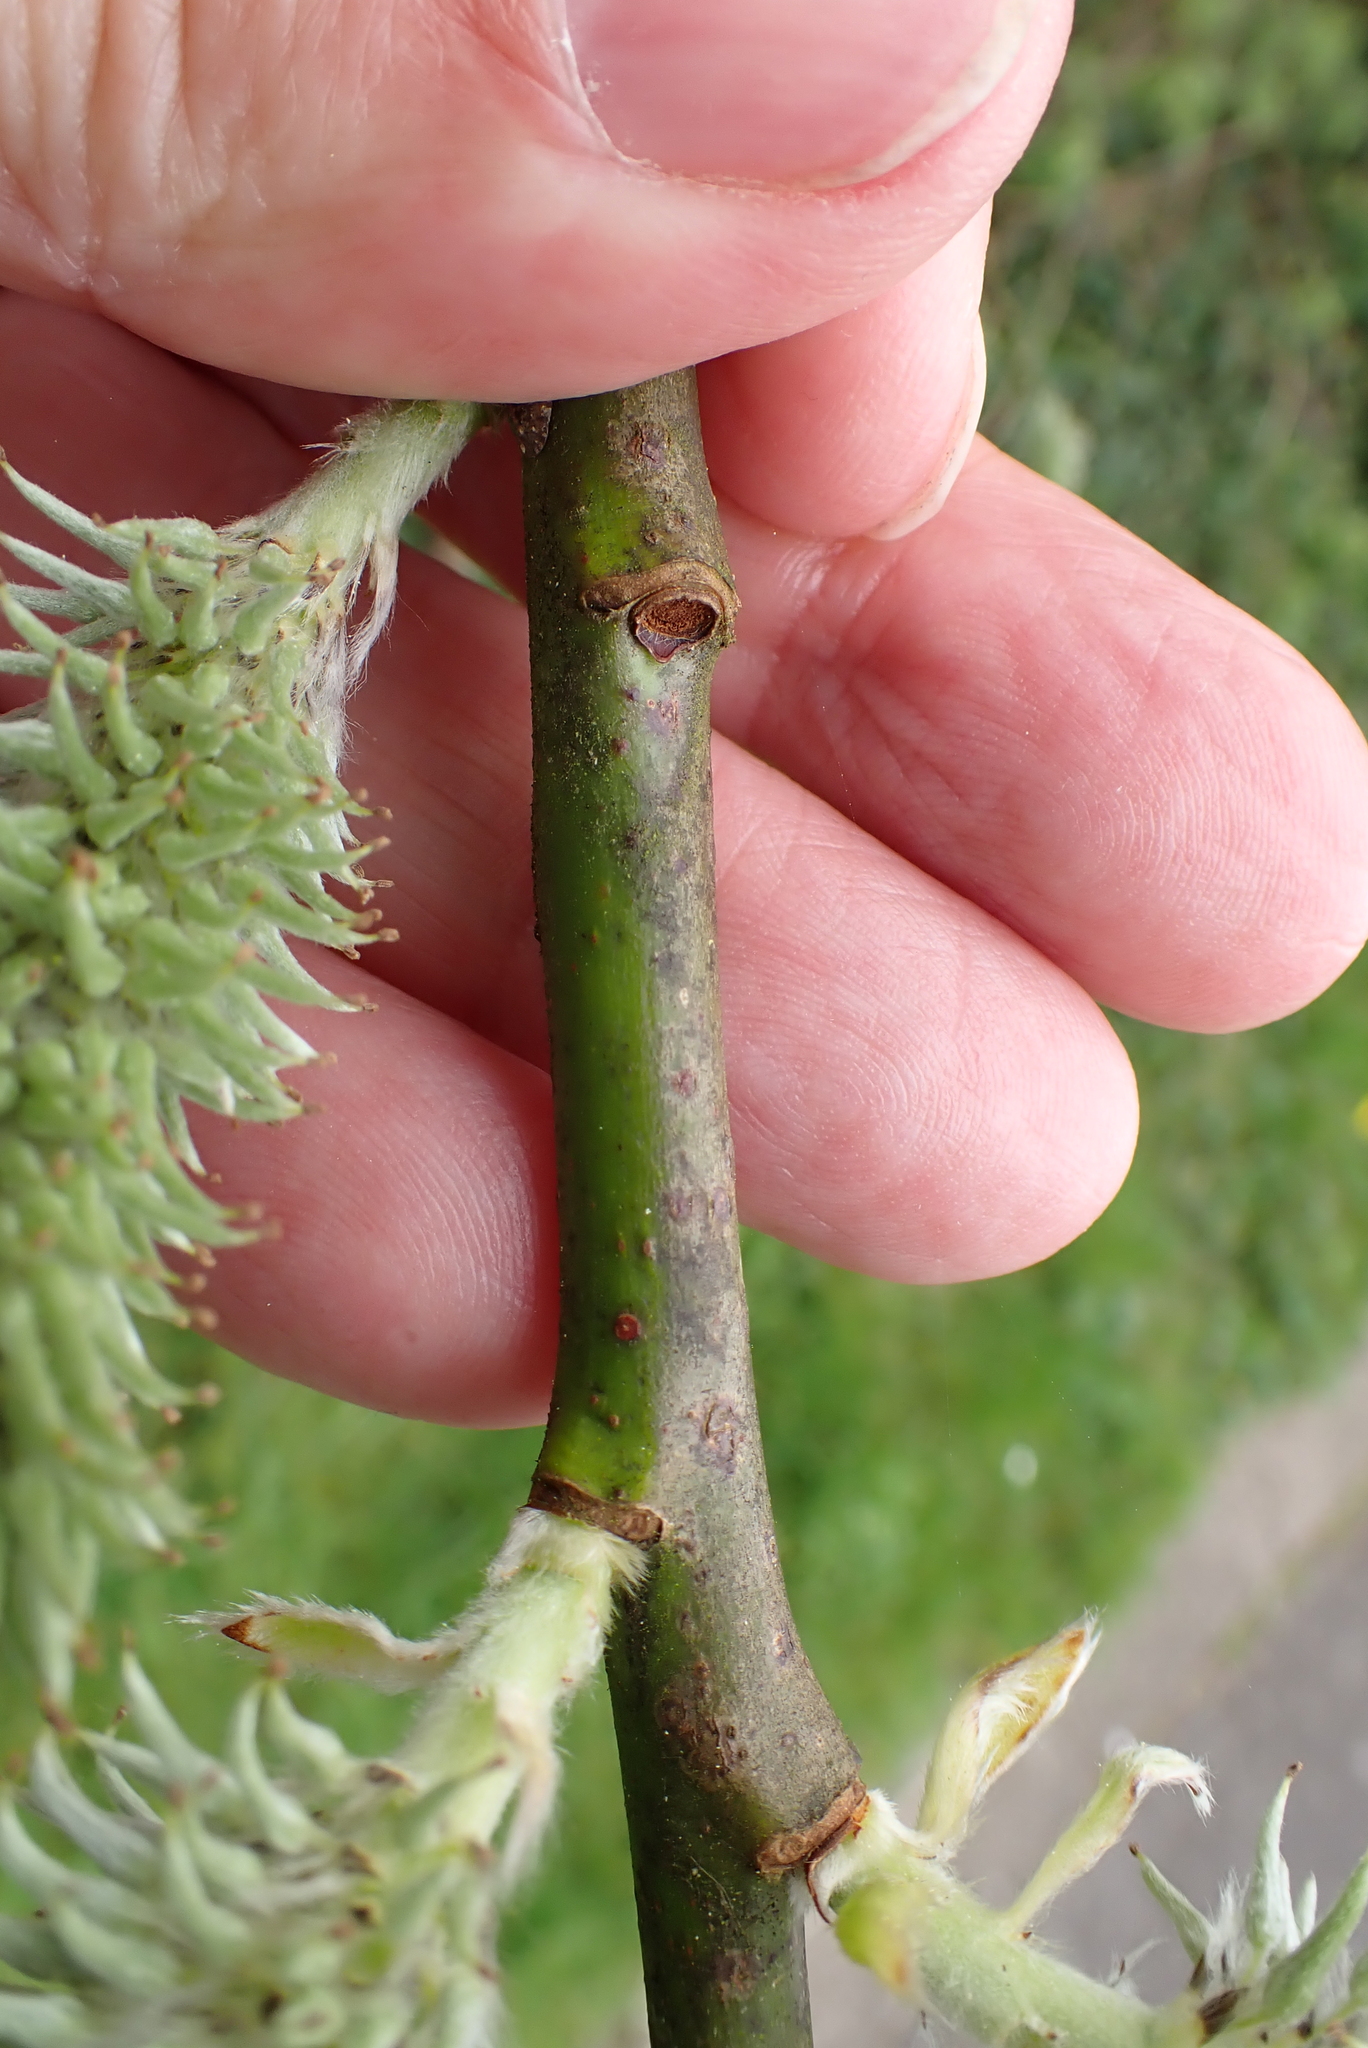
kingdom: Plantae
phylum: Tracheophyta
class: Magnoliopsida
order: Malpighiales
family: Salicaceae
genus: Salix
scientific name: Salix caprea
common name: Goat willow
